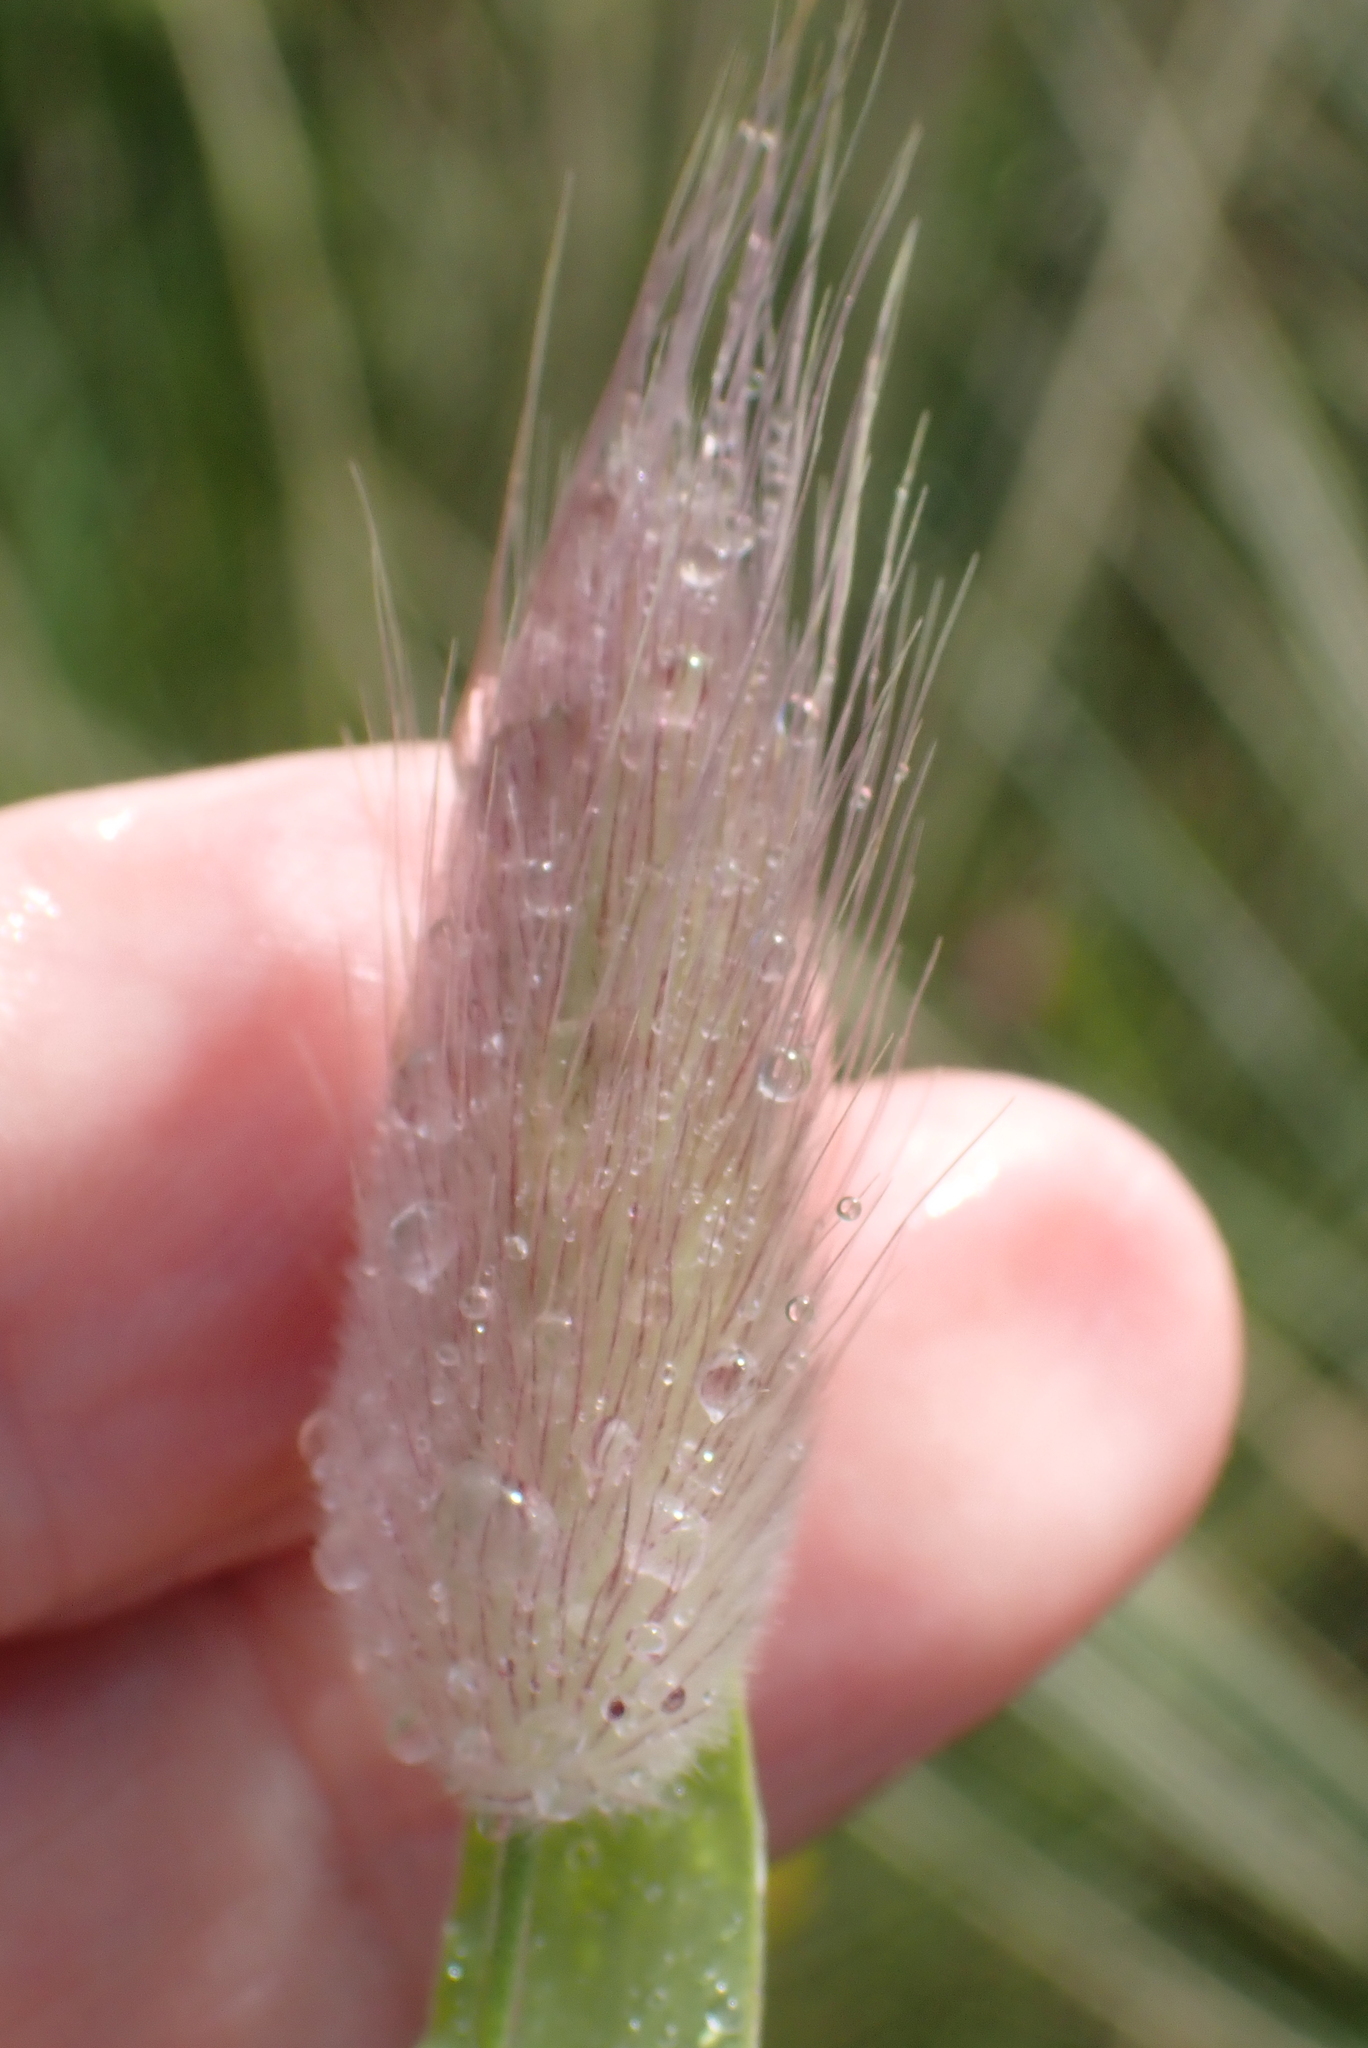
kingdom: Plantae
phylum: Tracheophyta
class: Liliopsida
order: Poales
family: Poaceae
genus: Lagurus
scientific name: Lagurus ovatus
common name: Hare's-tail
